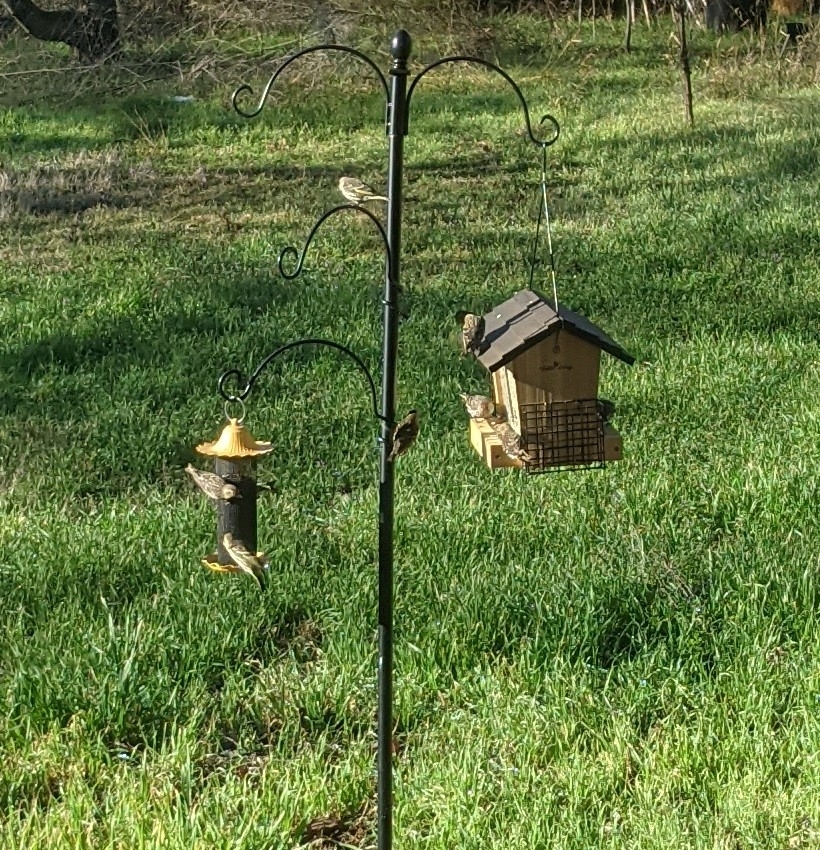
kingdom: Animalia
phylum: Chordata
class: Aves
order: Passeriformes
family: Fringillidae
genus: Spinus
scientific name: Spinus pinus
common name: Pine siskin
